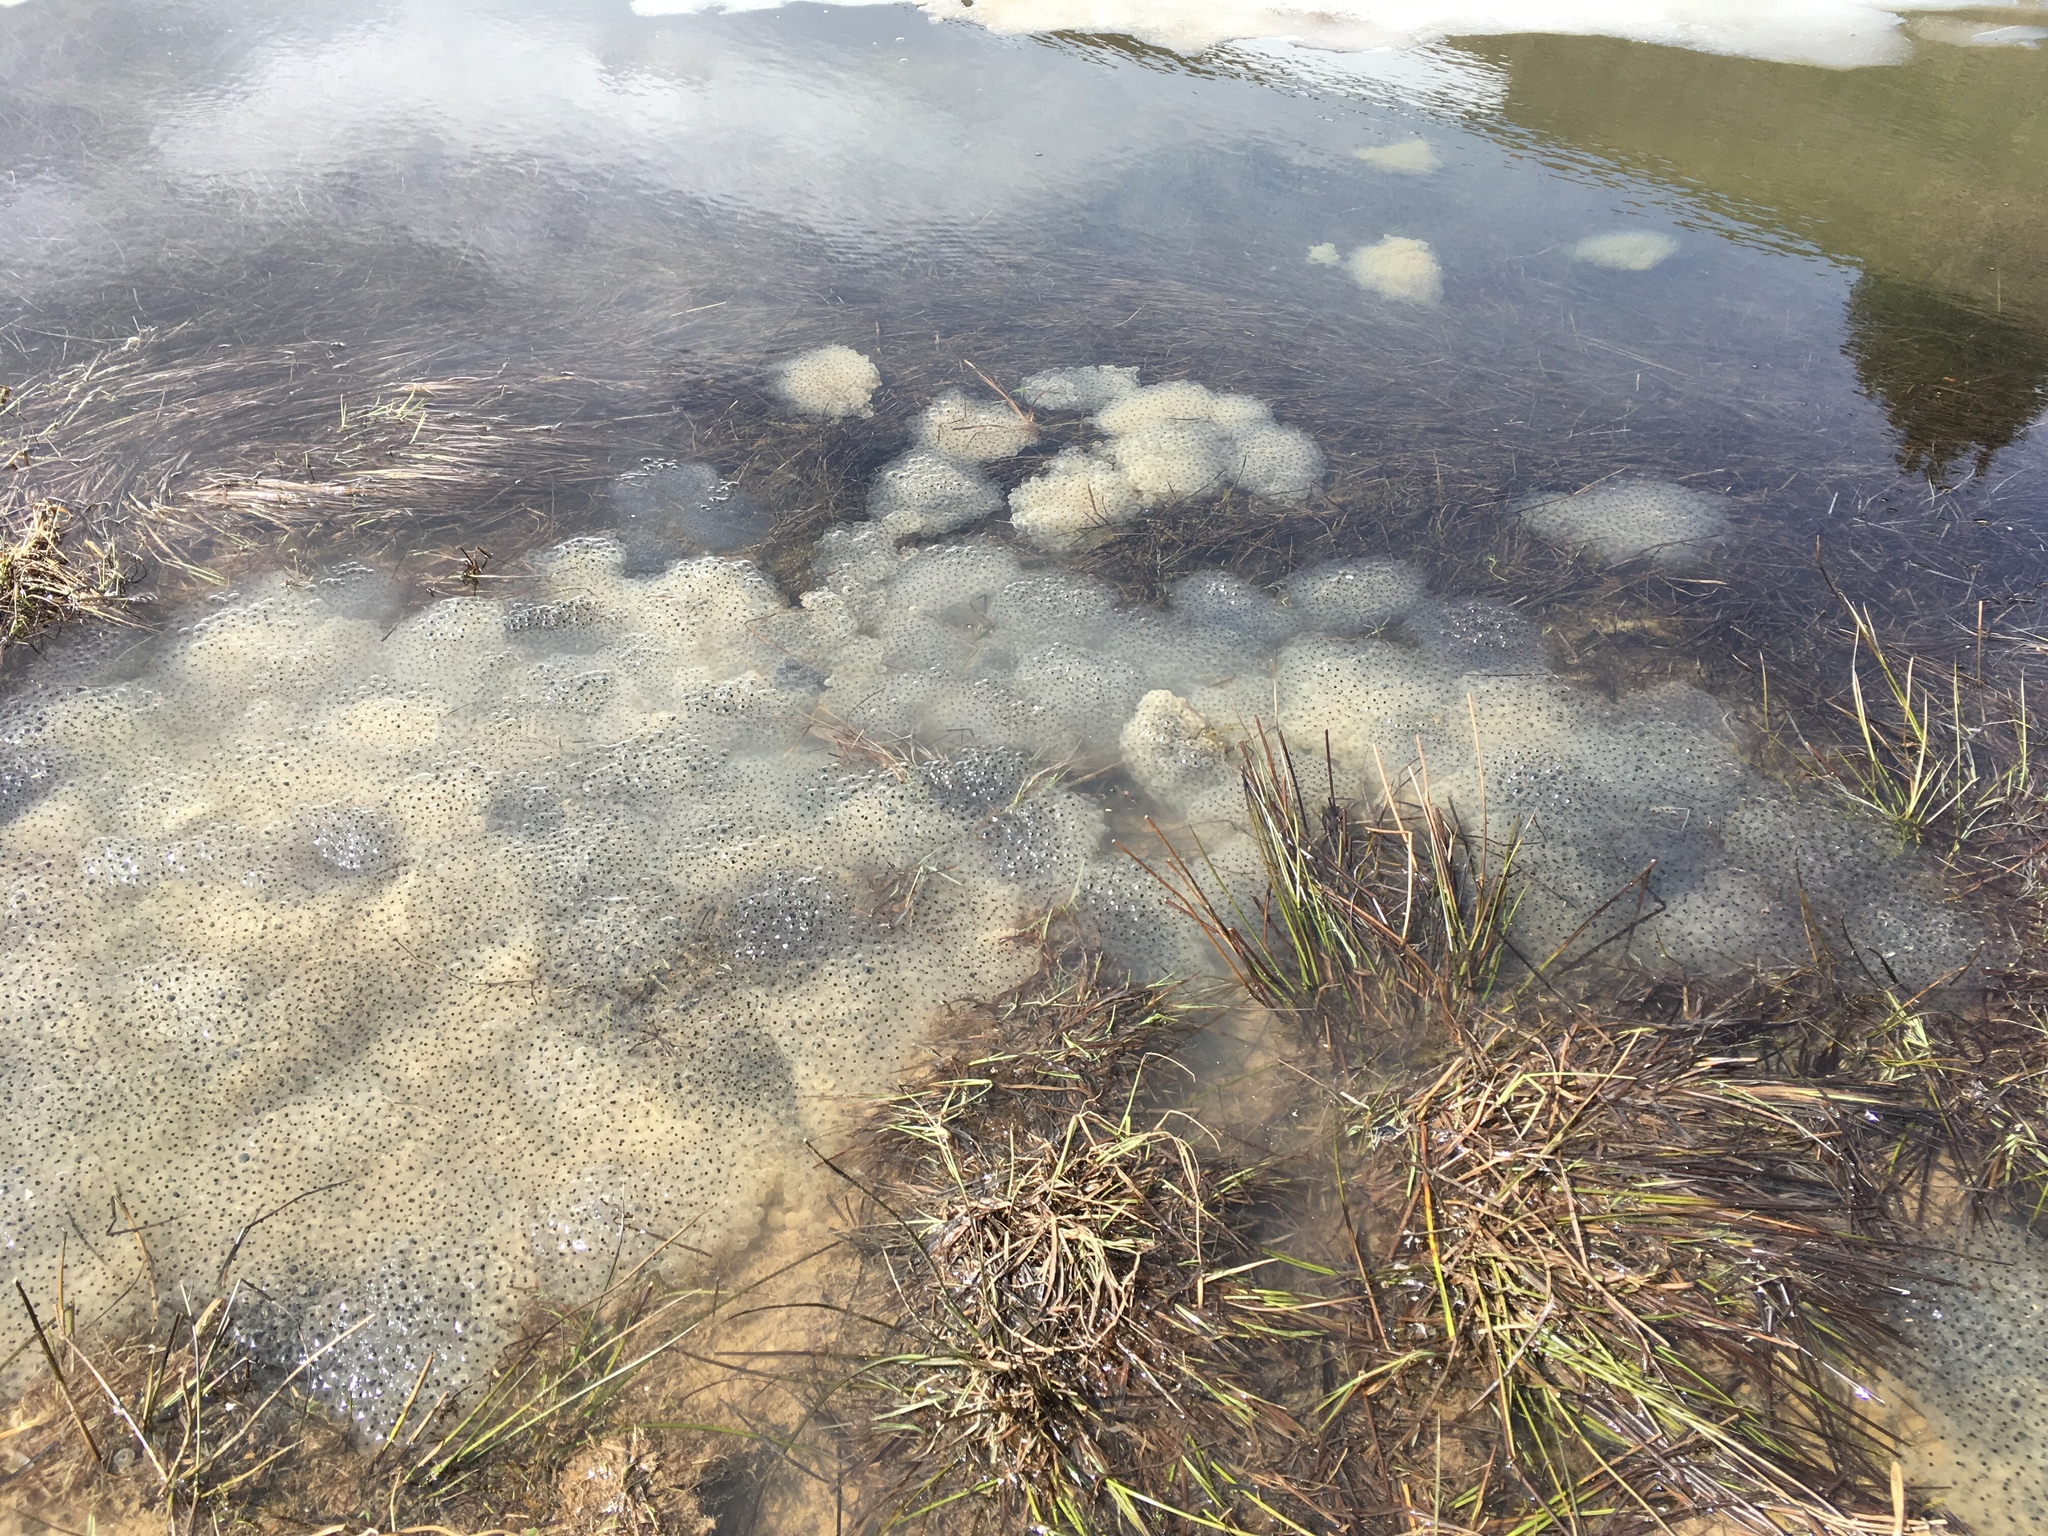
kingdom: Animalia
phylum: Chordata
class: Amphibia
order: Anura
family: Ranidae
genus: Rana
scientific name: Rana temporaria
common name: Common frog
